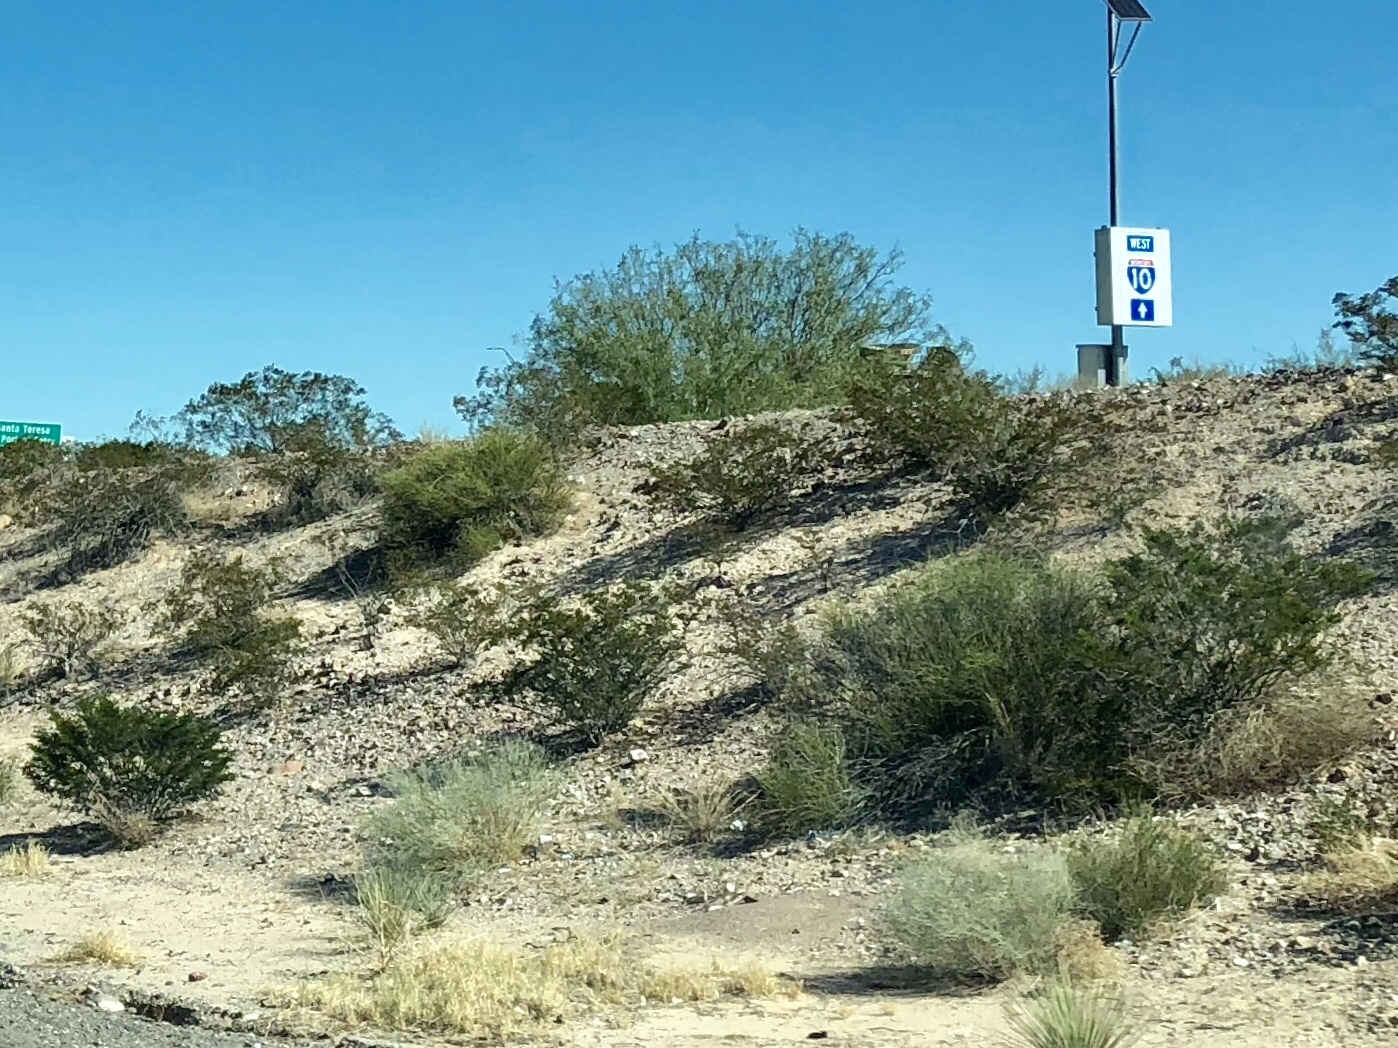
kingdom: Plantae
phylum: Tracheophyta
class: Magnoliopsida
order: Zygophyllales
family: Zygophyllaceae
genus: Larrea
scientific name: Larrea tridentata
